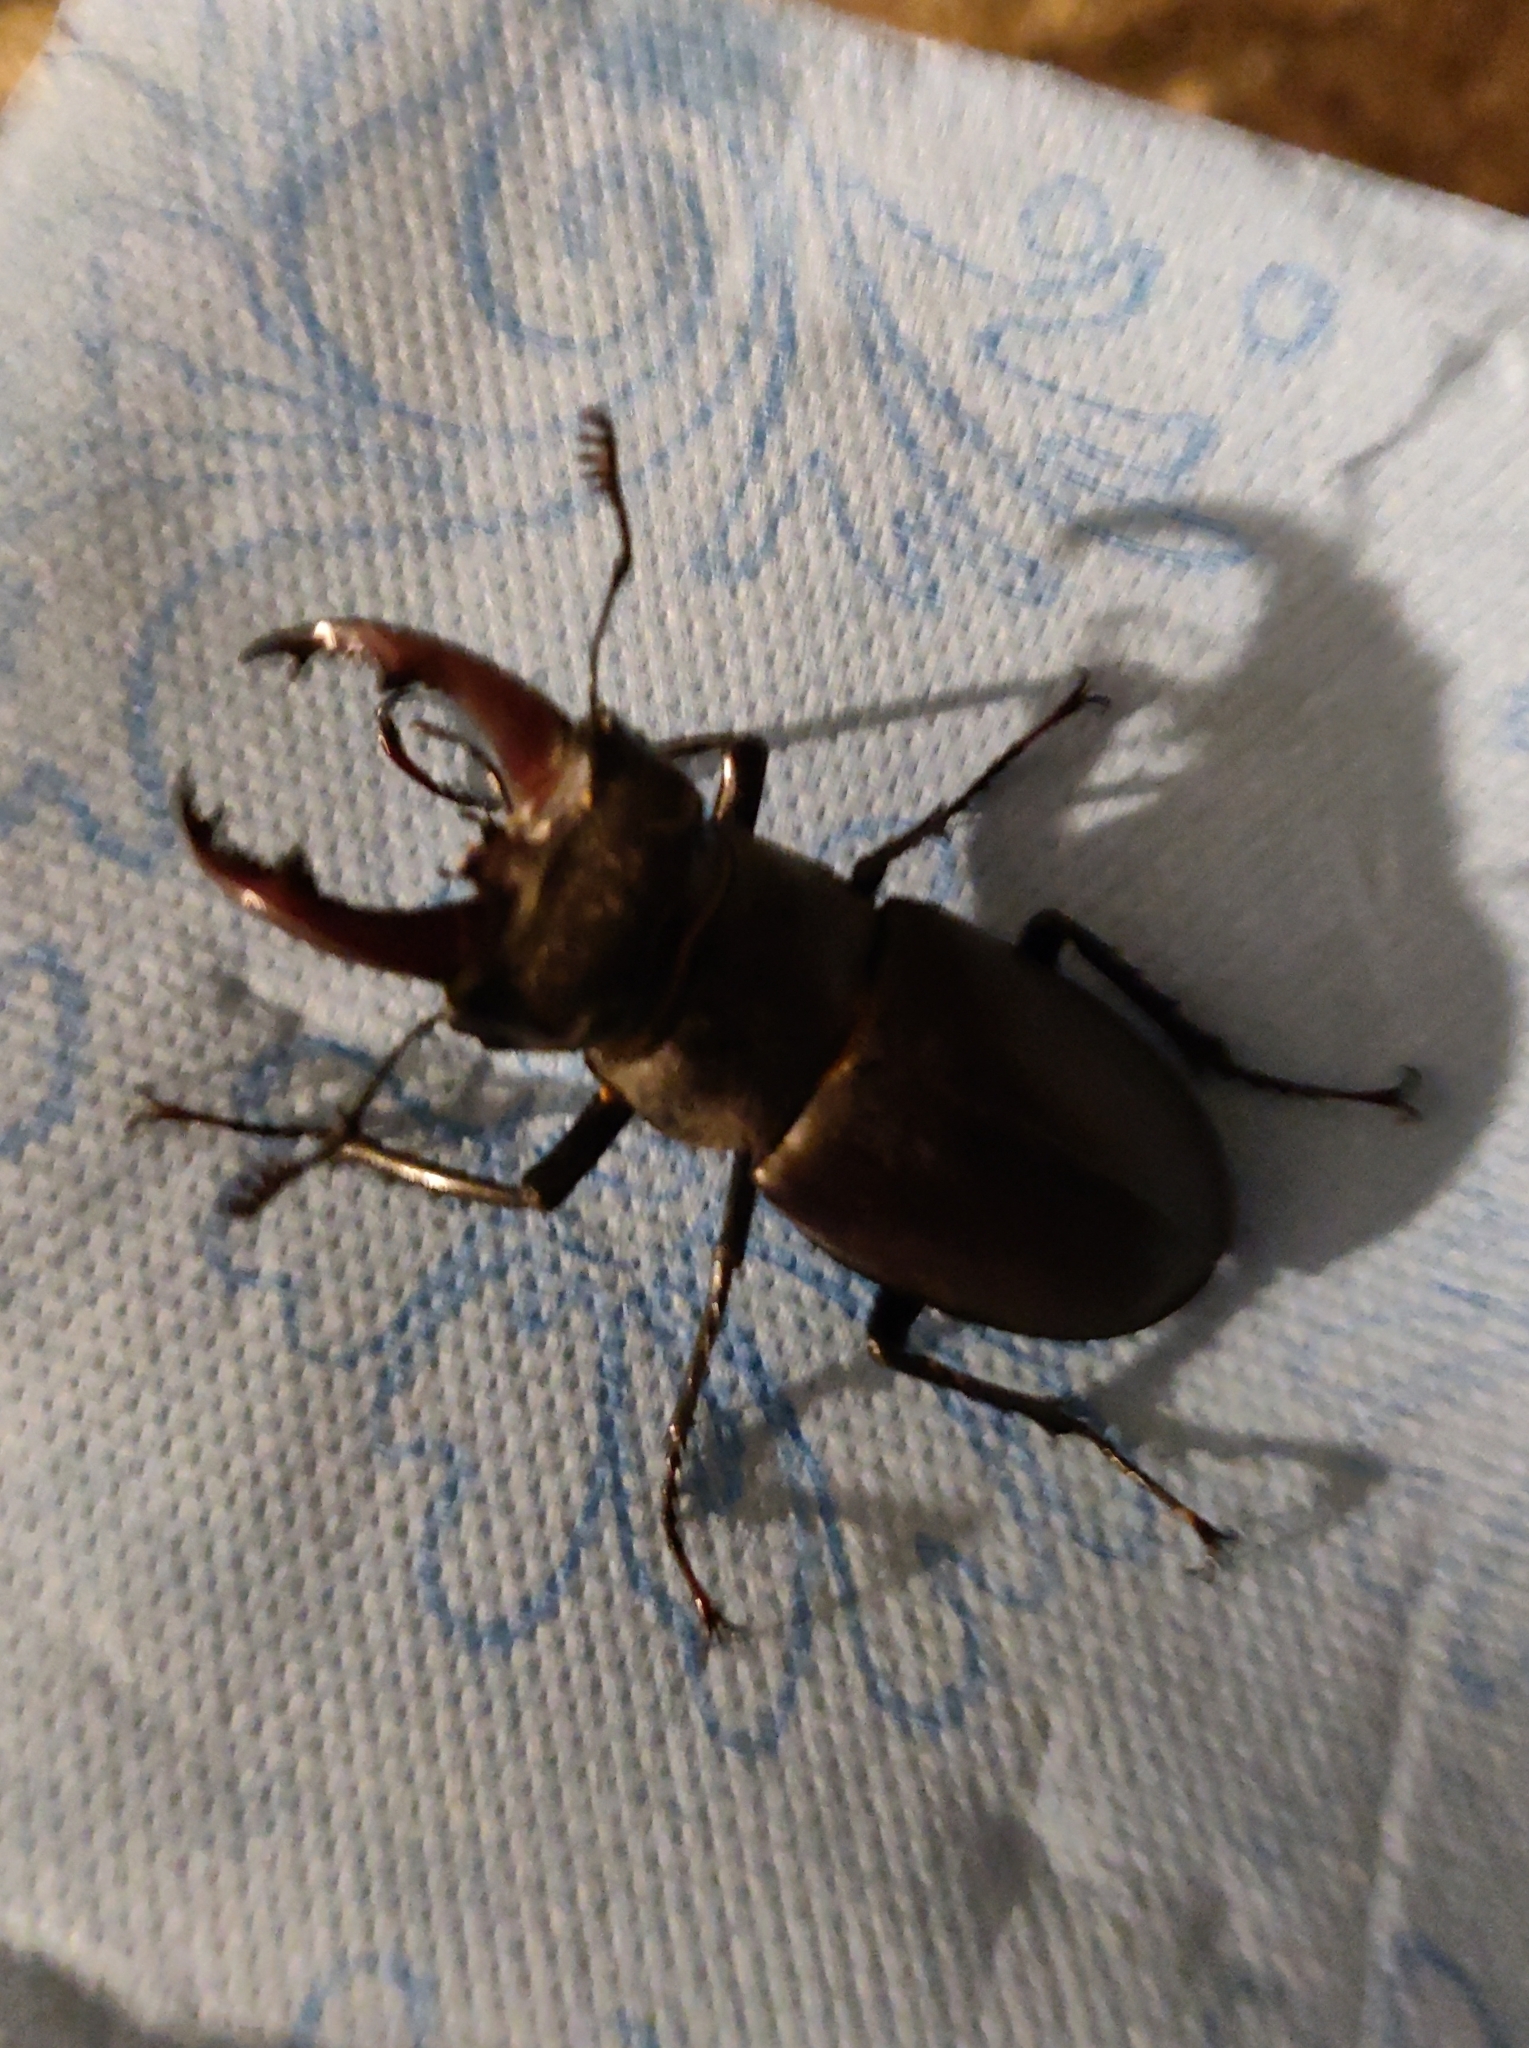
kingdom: Animalia
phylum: Arthropoda
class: Insecta
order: Coleoptera
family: Lucanidae
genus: Lucanus
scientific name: Lucanus cervus
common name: Stag beetle
